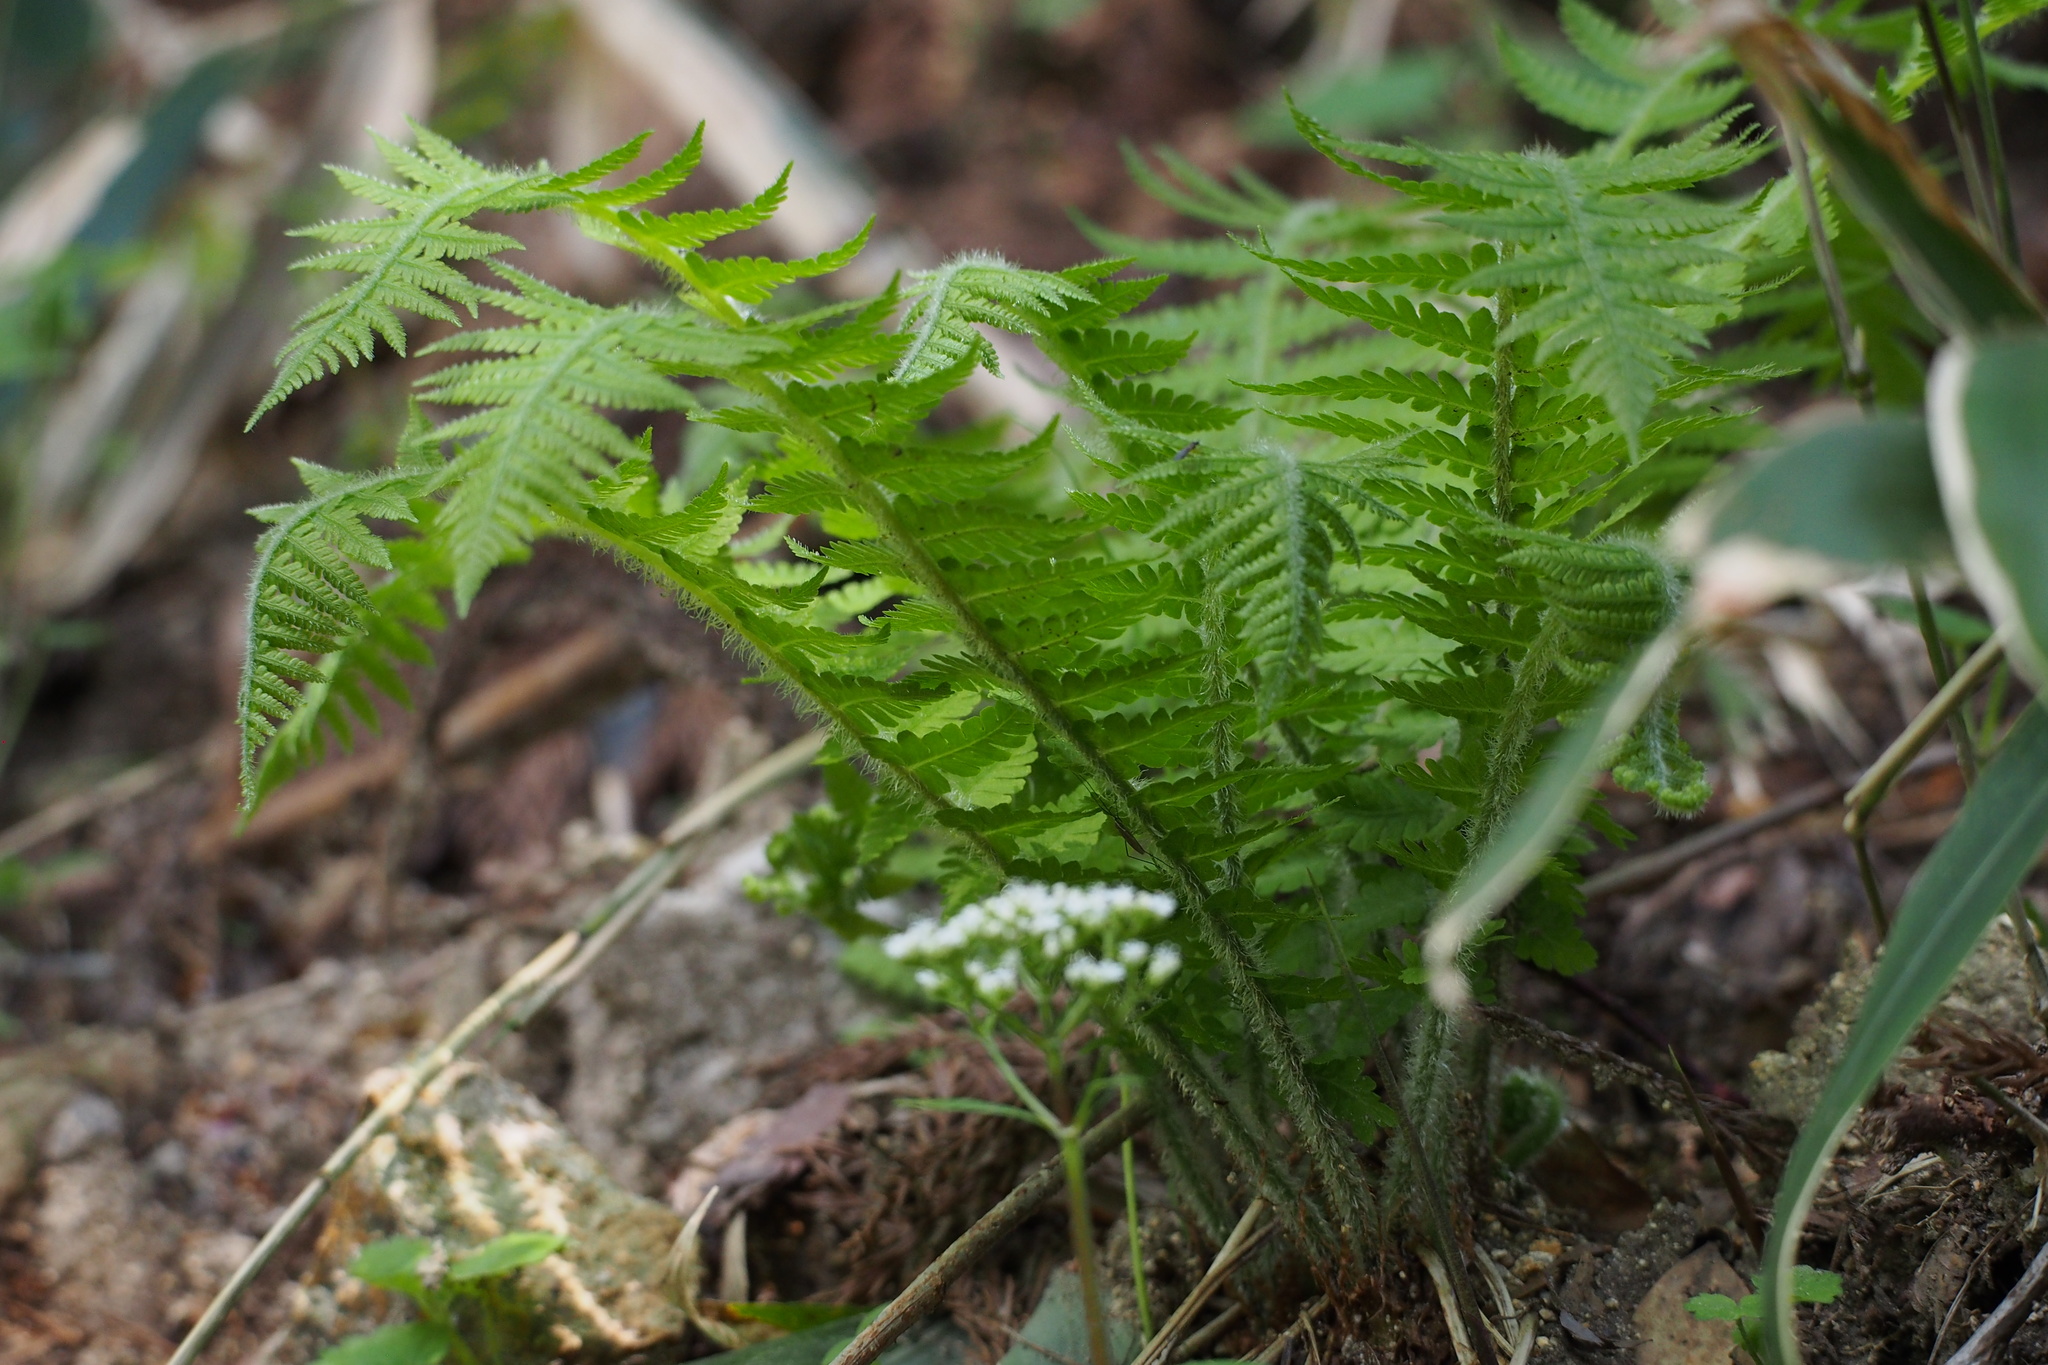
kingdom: Plantae
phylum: Tracheophyta
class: Polypodiopsida
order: Polypodiales
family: Athyriaceae
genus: Deparia
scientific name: Deparia pycnosora
